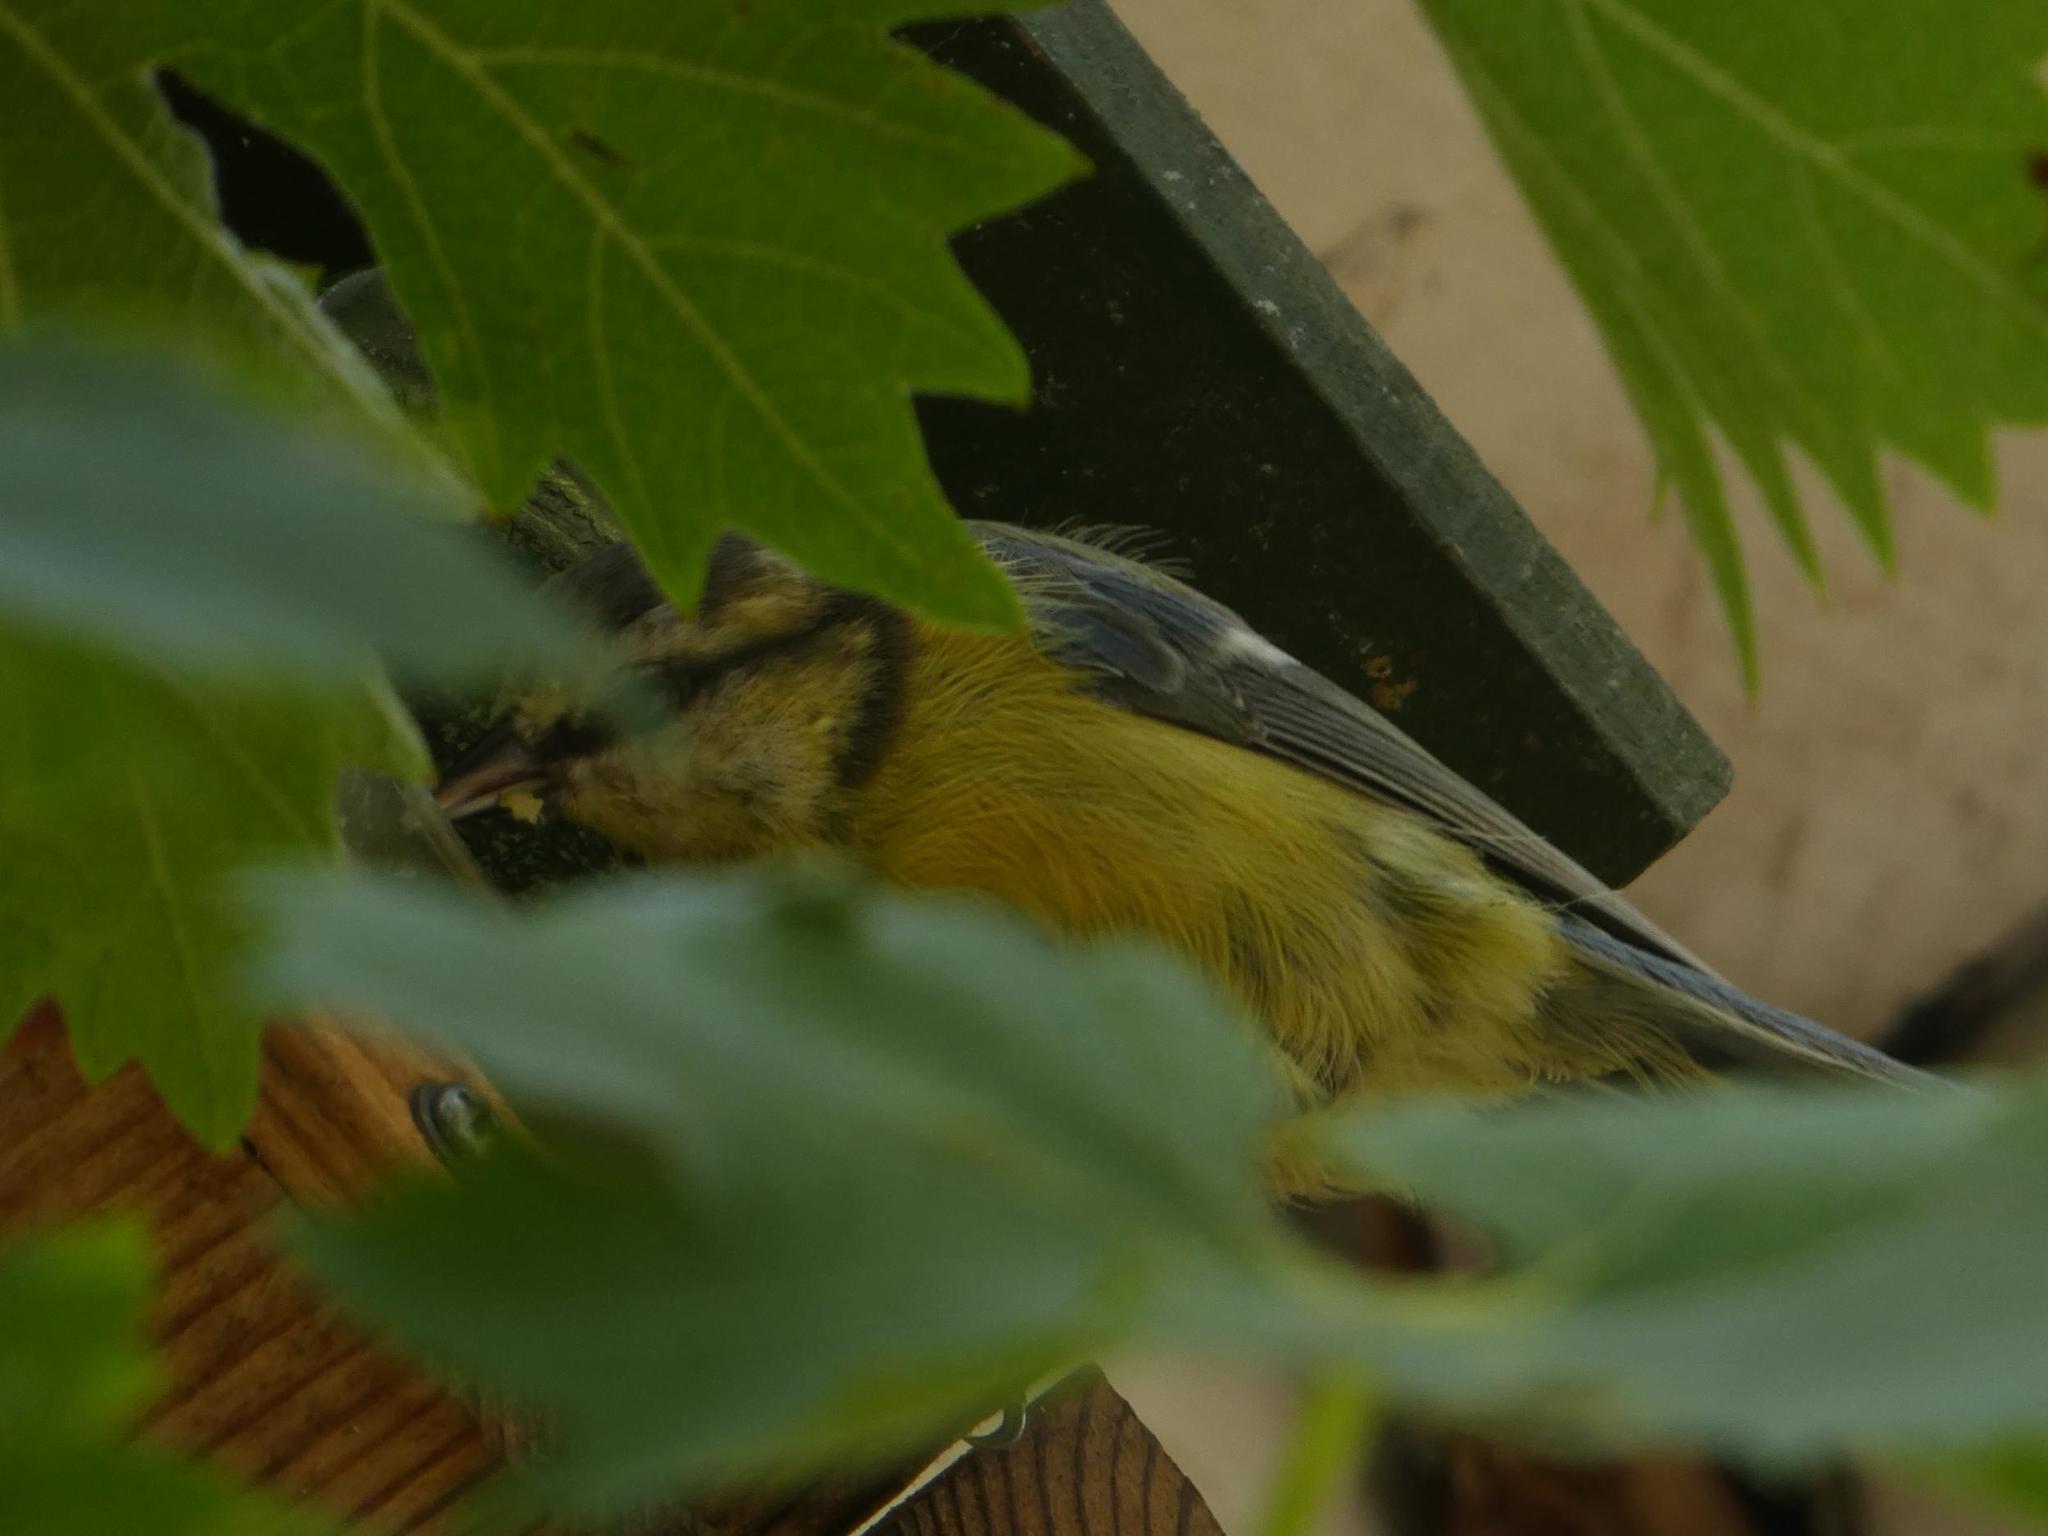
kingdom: Animalia
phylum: Chordata
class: Aves
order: Passeriformes
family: Paridae
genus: Cyanistes
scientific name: Cyanistes caeruleus
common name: Eurasian blue tit
